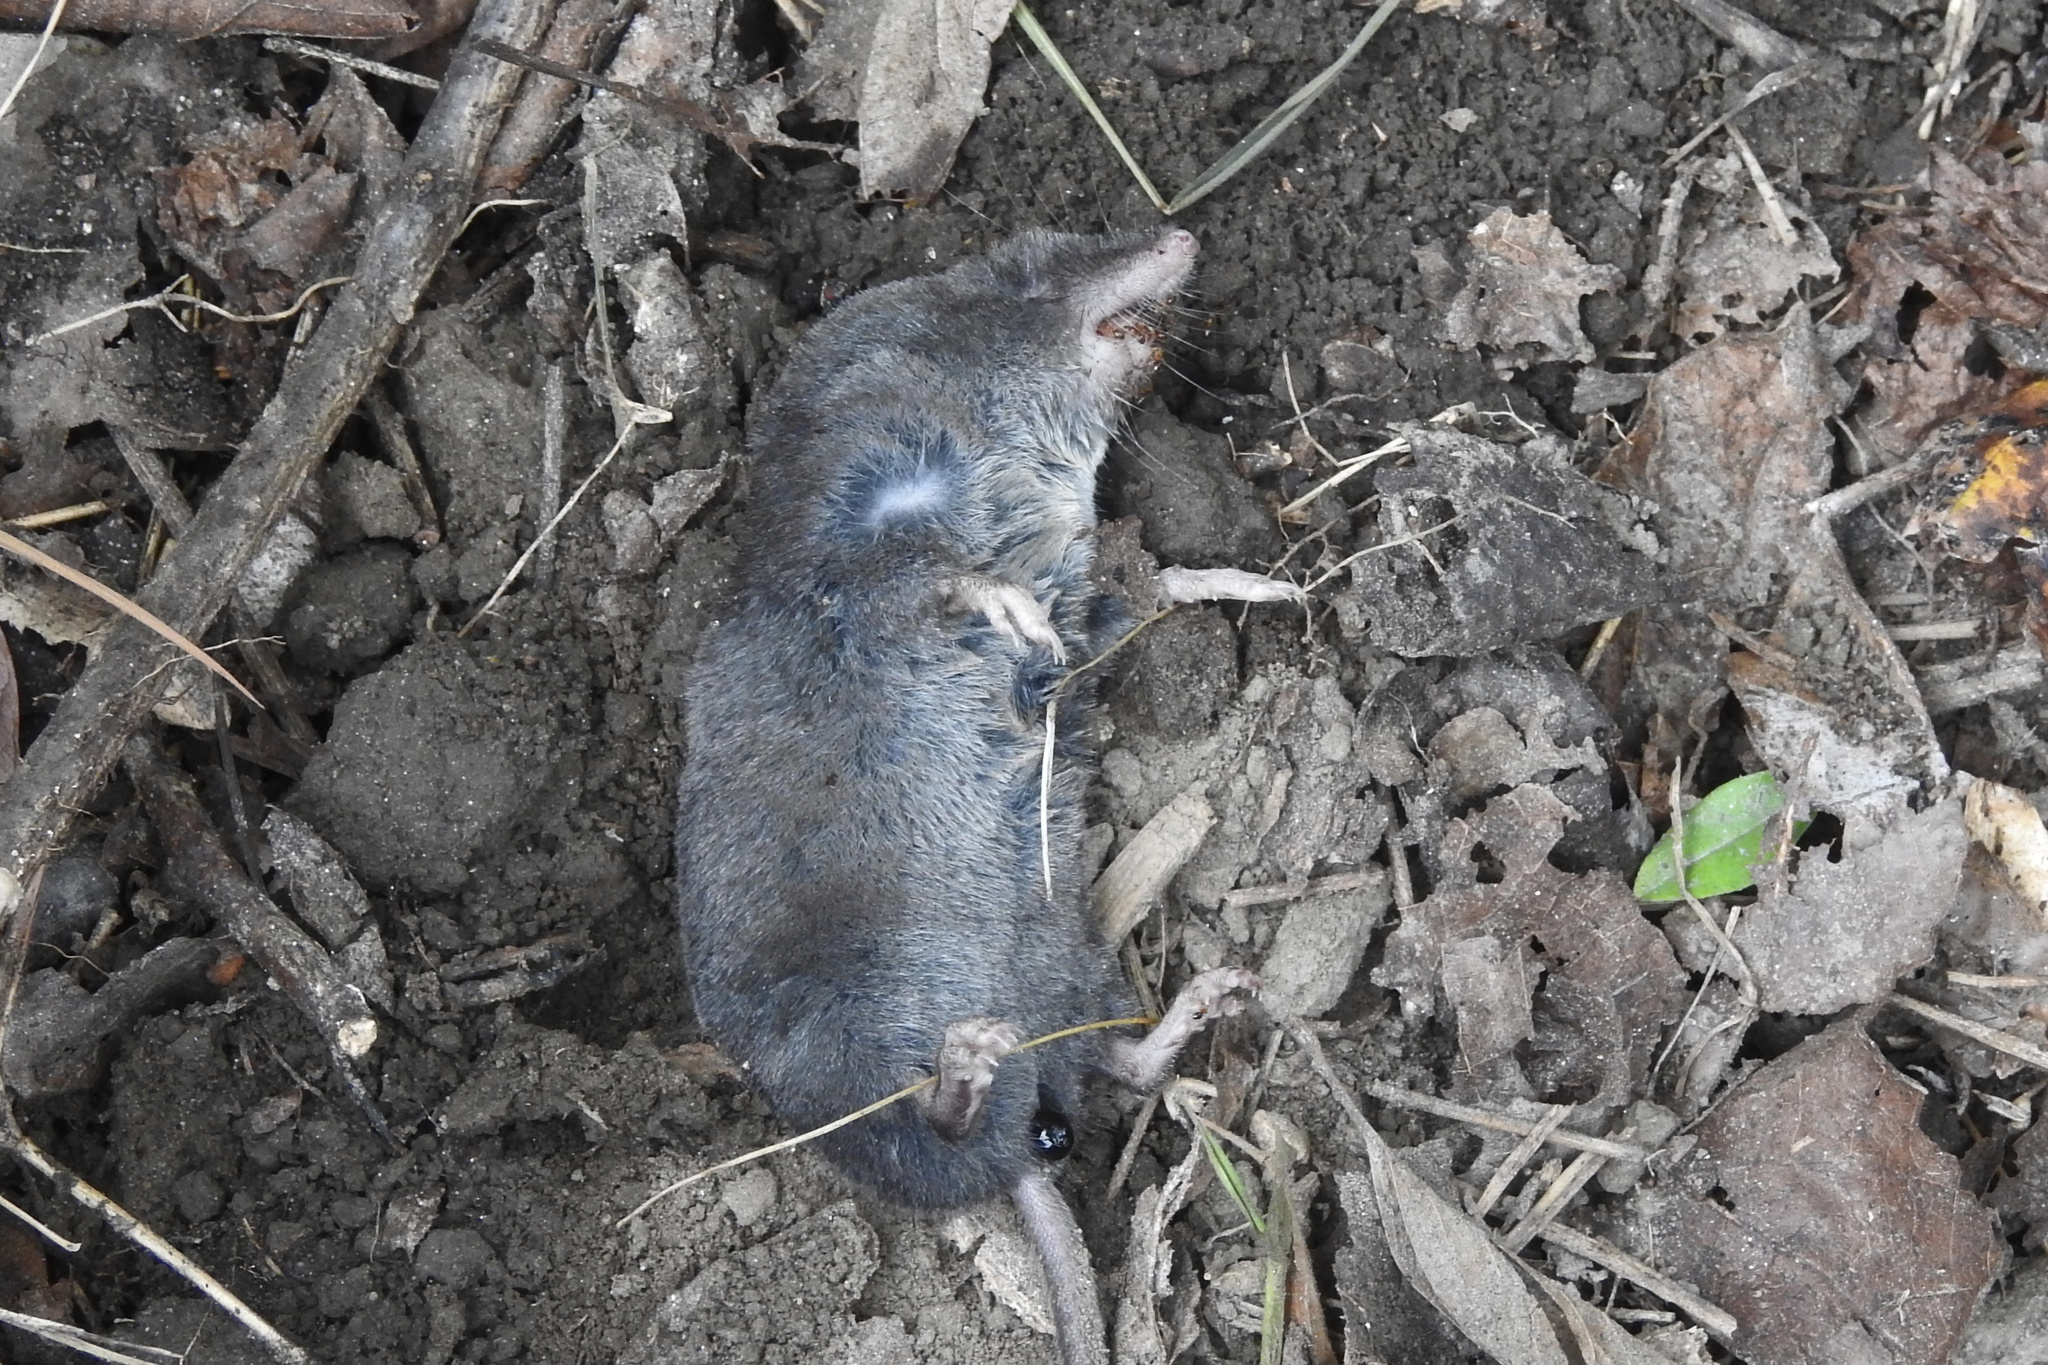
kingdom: Animalia
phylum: Chordata
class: Mammalia
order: Soricomorpha
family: Soricidae
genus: Blarina
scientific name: Blarina brevicauda
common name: Northern short-tailed shrew
